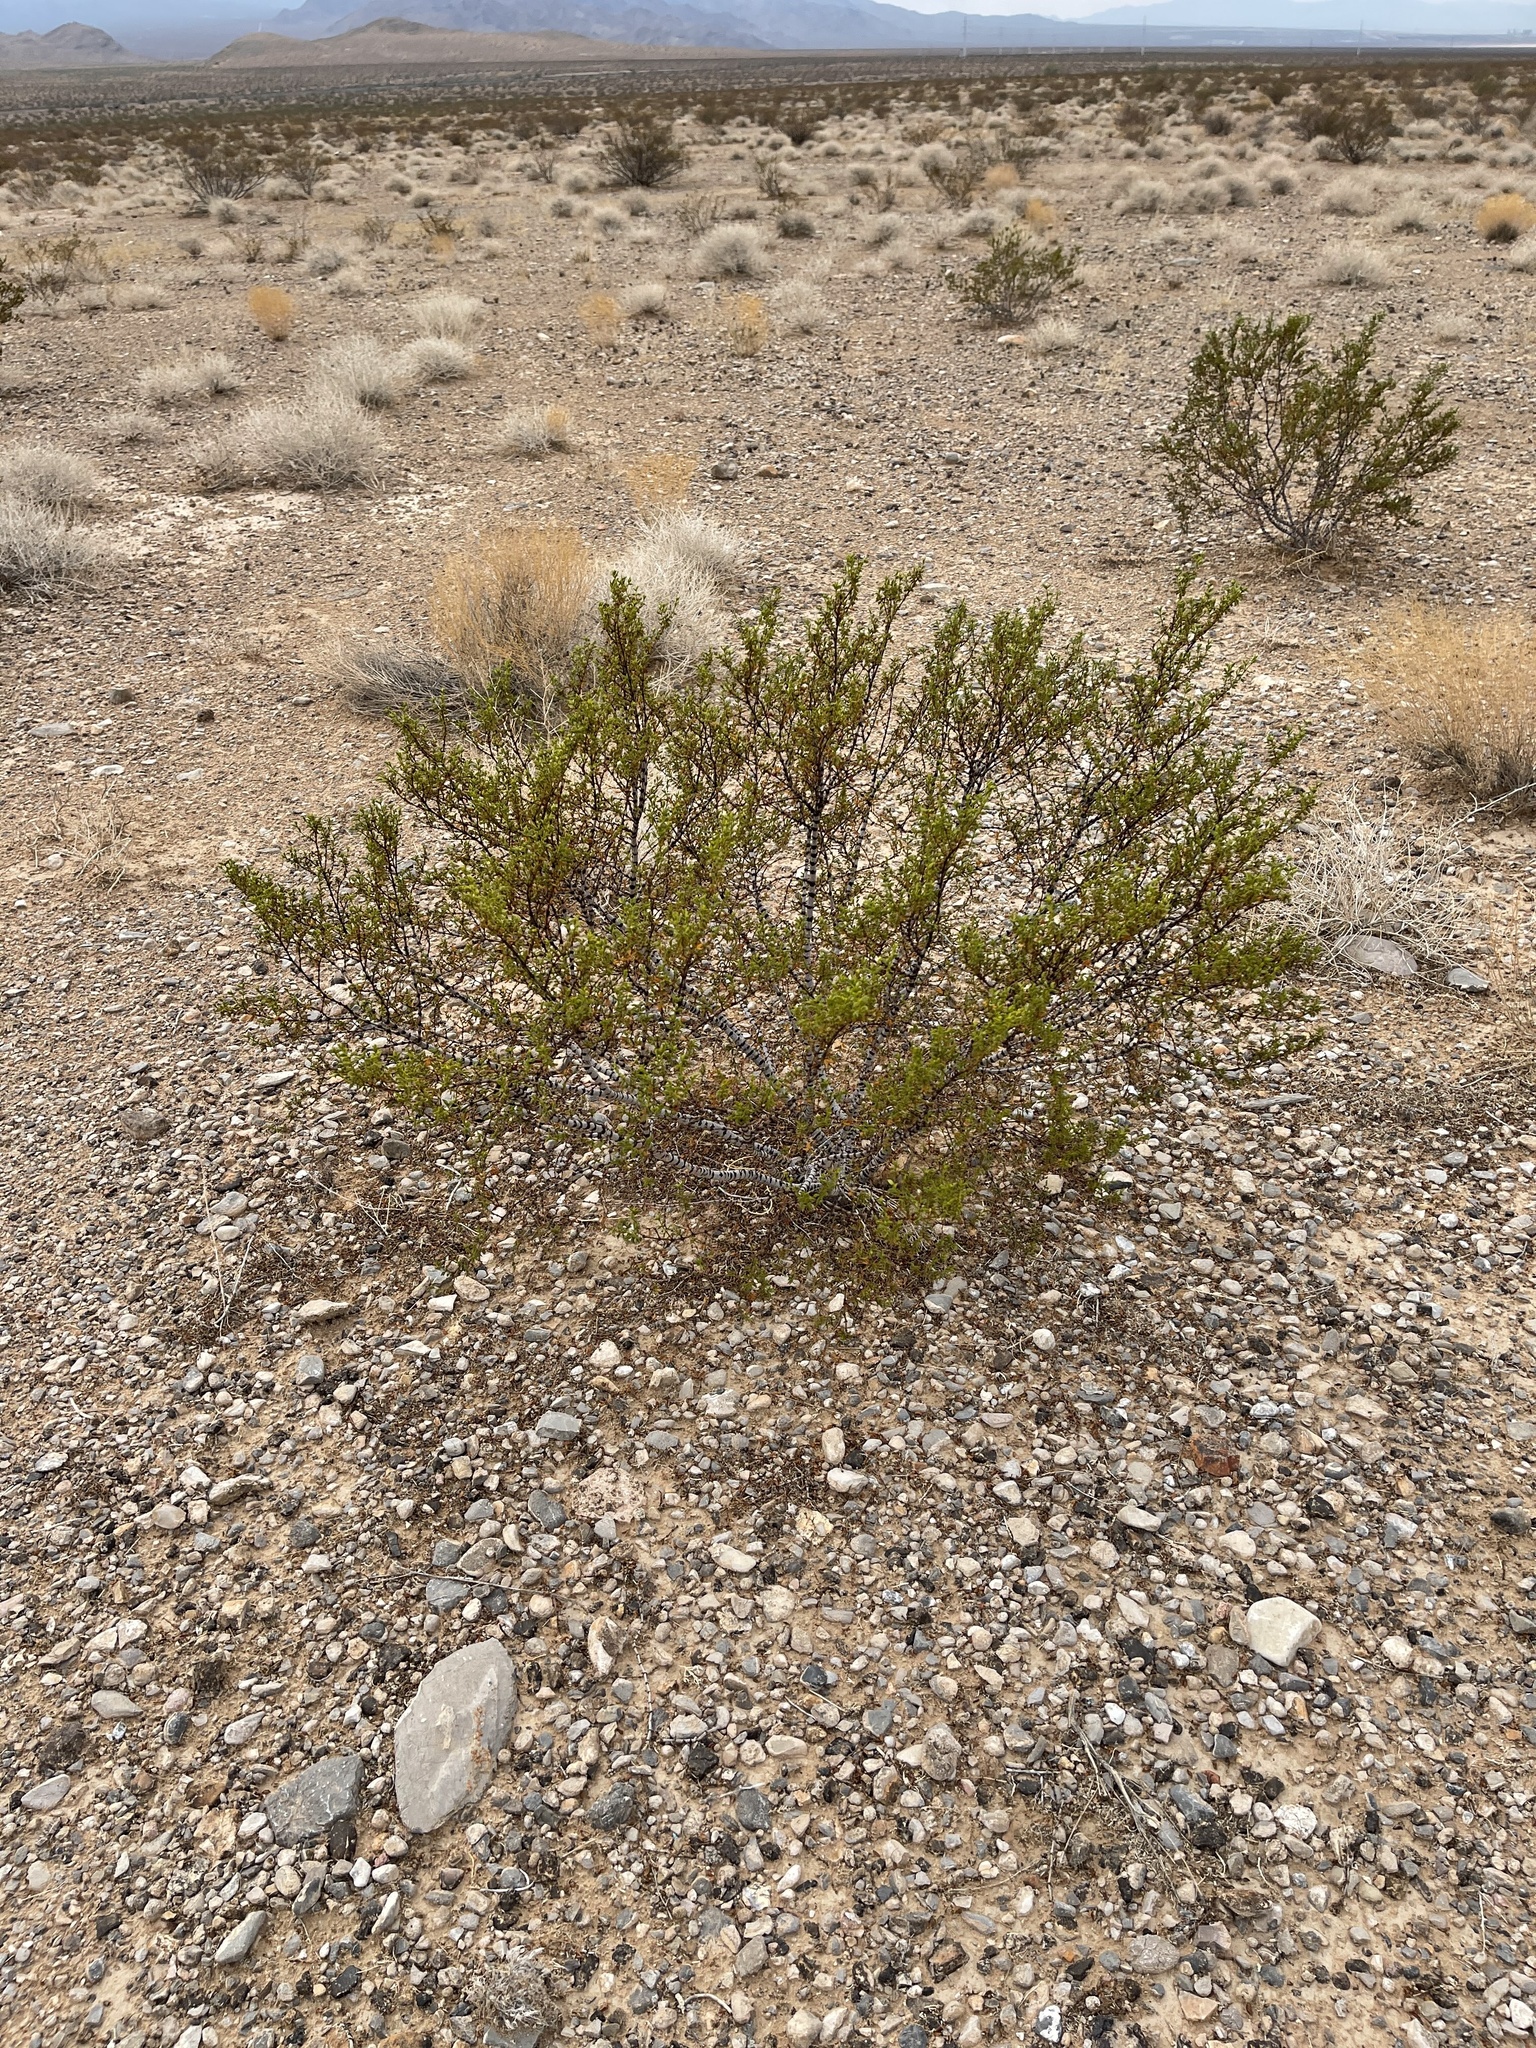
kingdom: Plantae
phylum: Tracheophyta
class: Magnoliopsida
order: Zygophyllales
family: Zygophyllaceae
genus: Larrea
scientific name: Larrea tridentata
